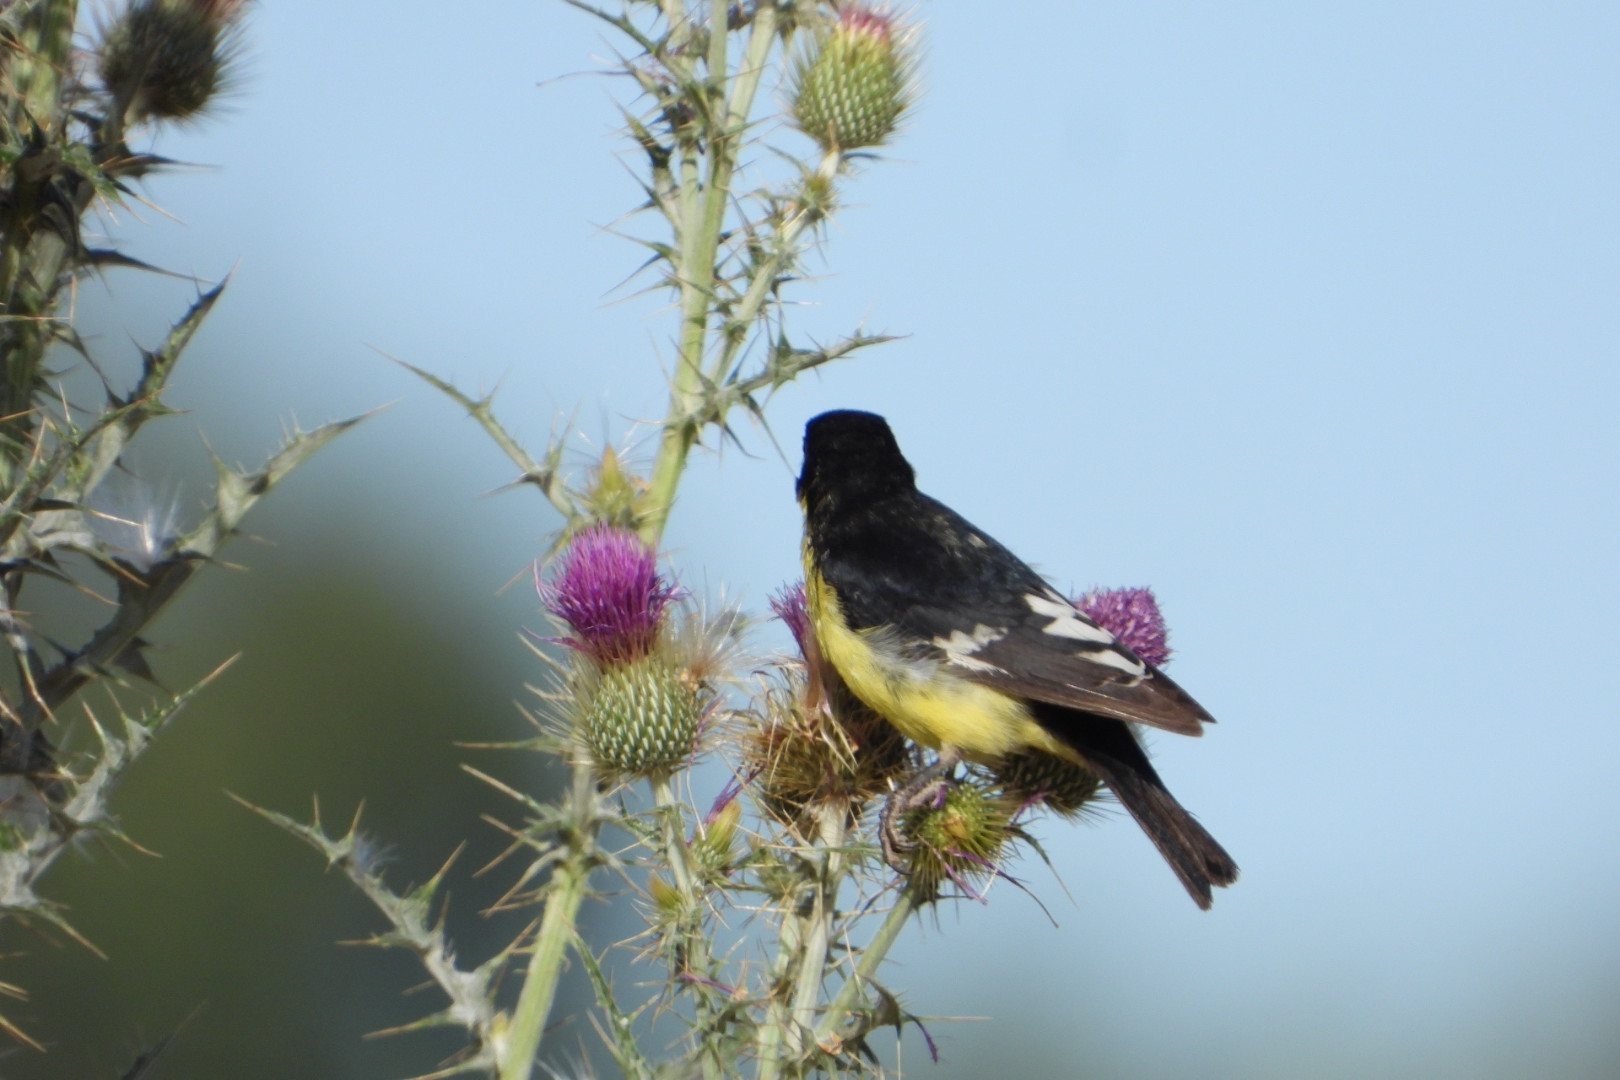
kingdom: Plantae
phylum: Tracheophyta
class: Magnoliopsida
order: Asterales
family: Asteraceae
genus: Cirsium
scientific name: Cirsium rhaphilepis
